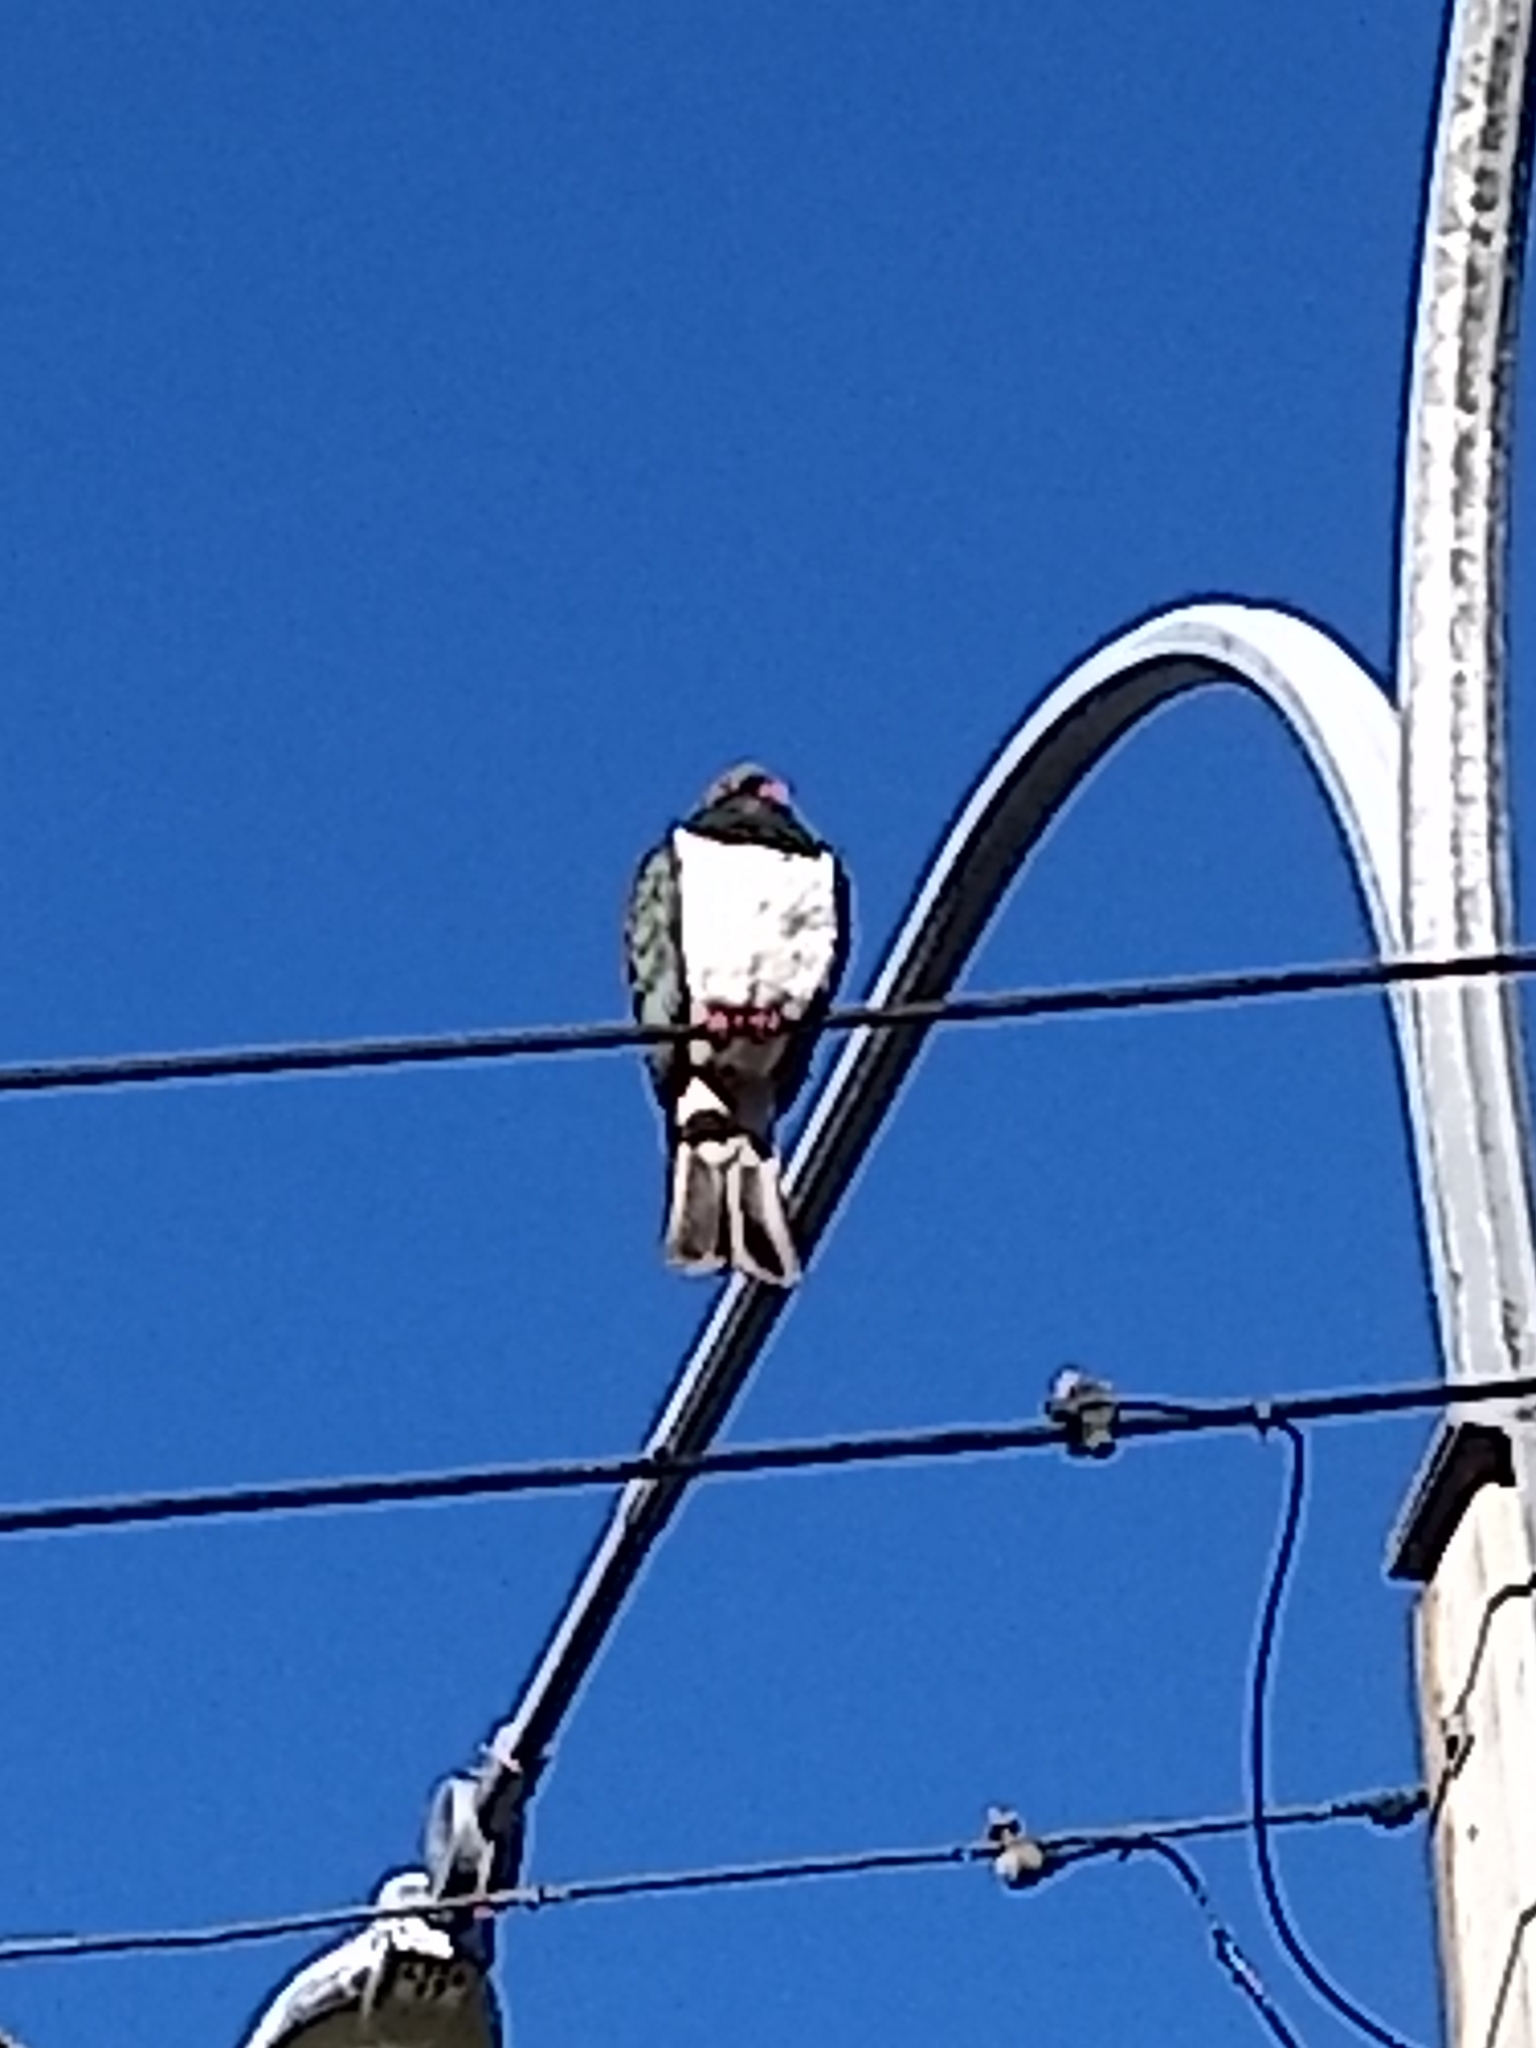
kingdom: Animalia
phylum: Chordata
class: Aves
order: Columbiformes
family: Columbidae
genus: Hemiphaga
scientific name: Hemiphaga novaeseelandiae
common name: New zealand pigeon
